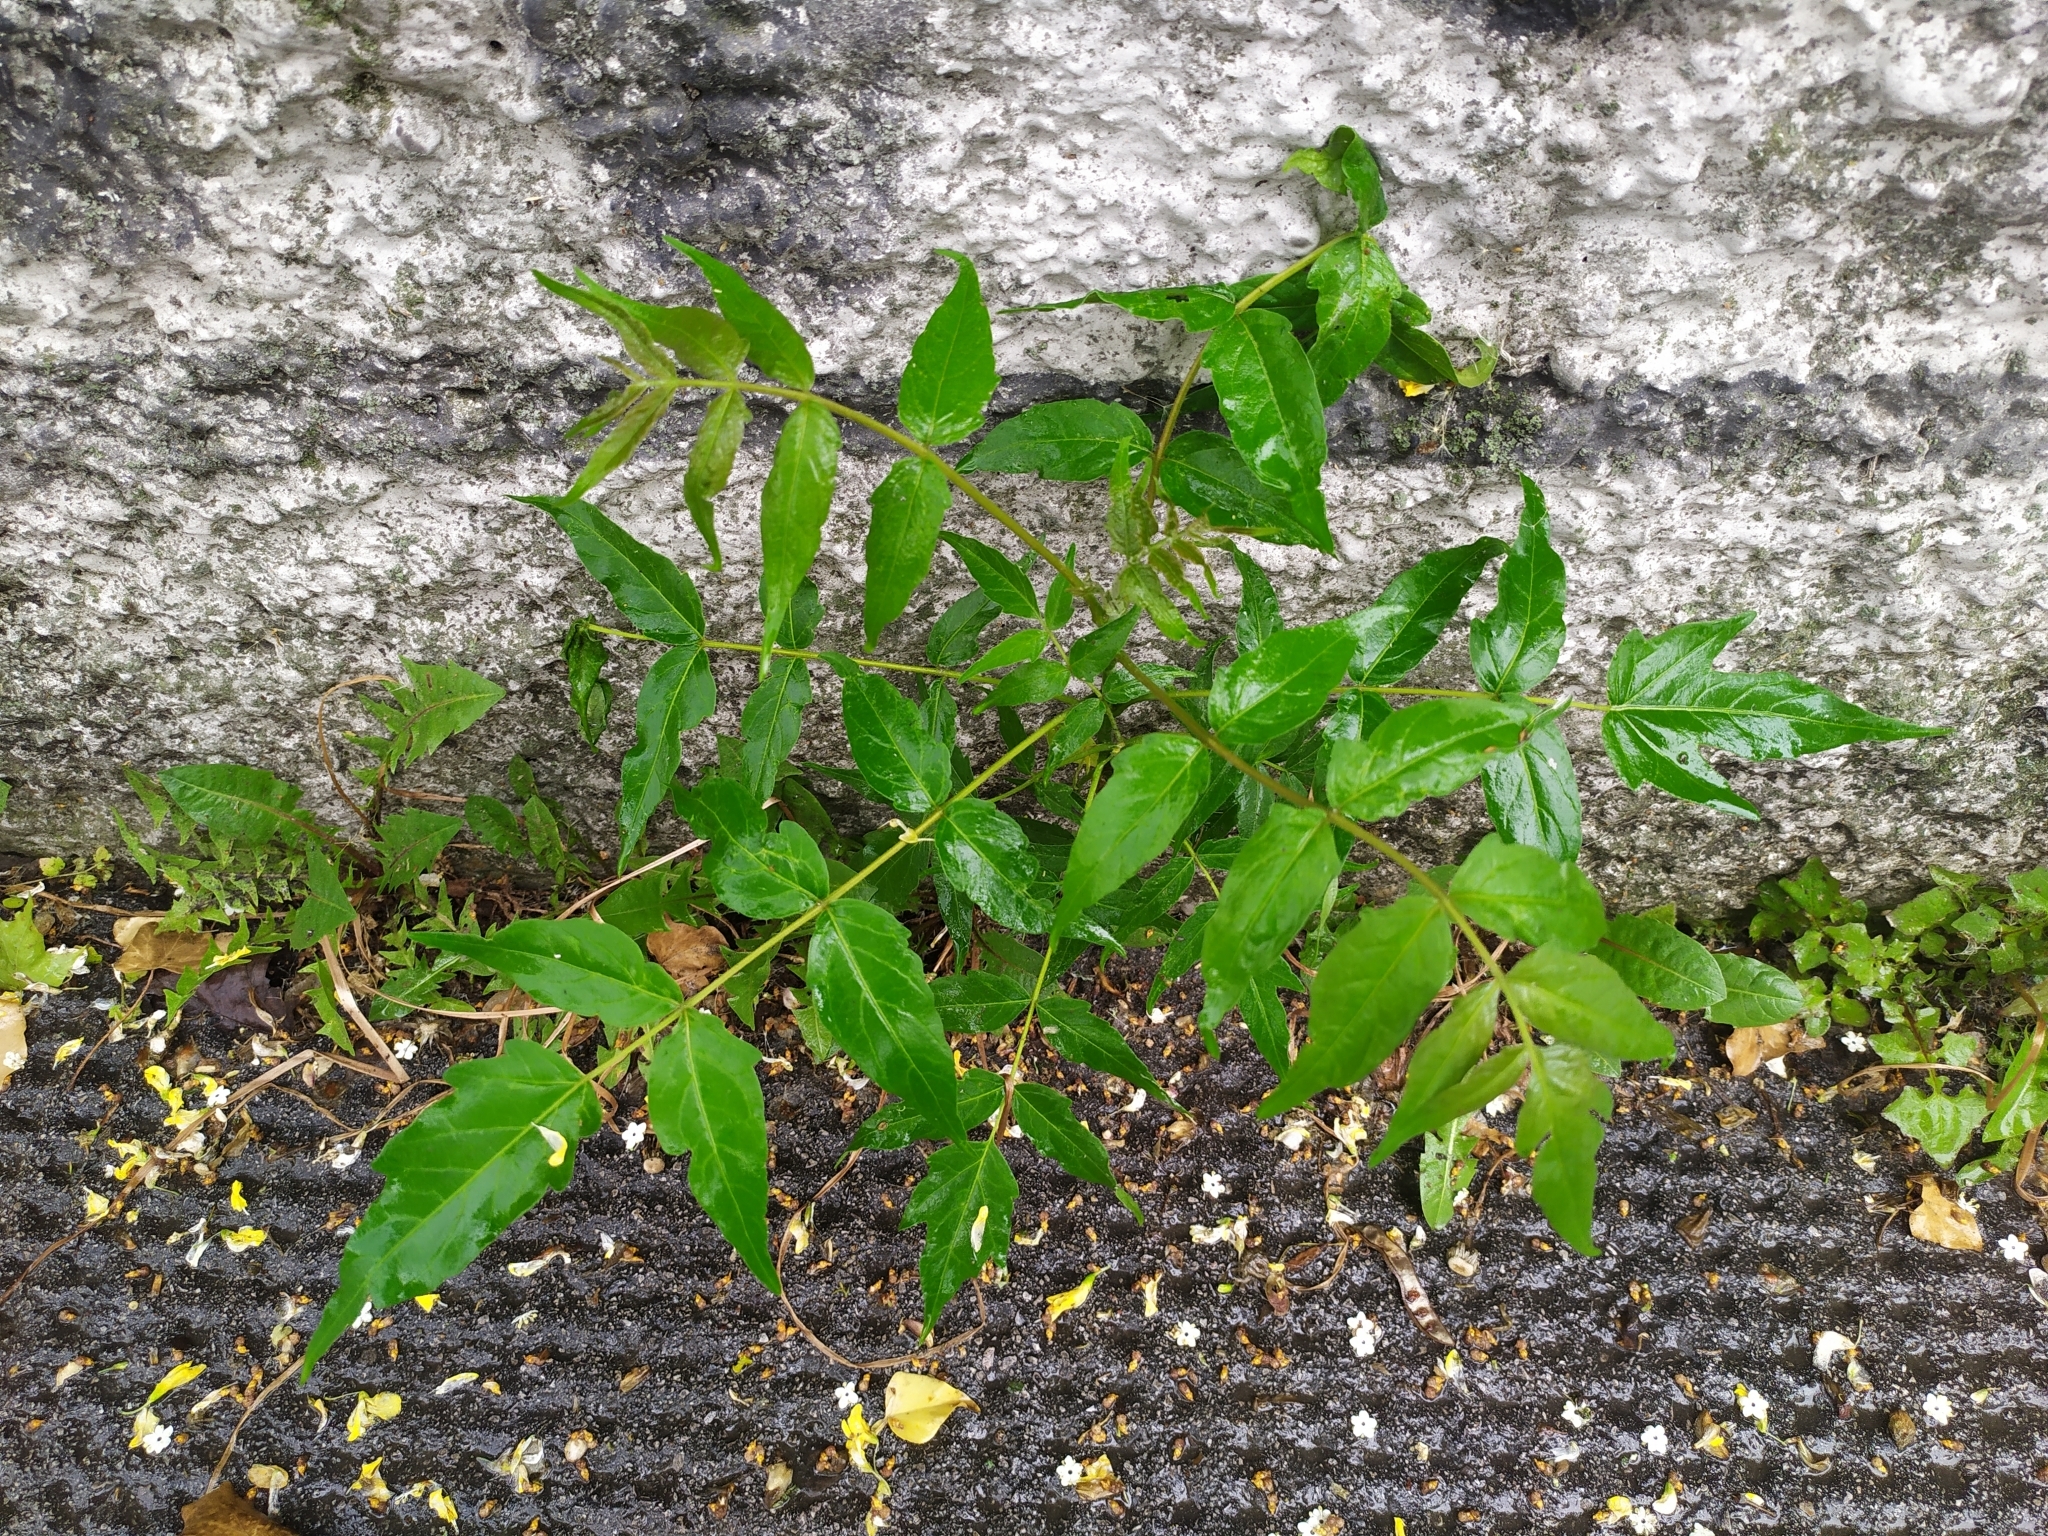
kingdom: Plantae
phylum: Tracheophyta
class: Magnoliopsida
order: Sapindales
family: Simaroubaceae
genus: Ailanthus
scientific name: Ailanthus altissima
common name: Tree-of-heaven
